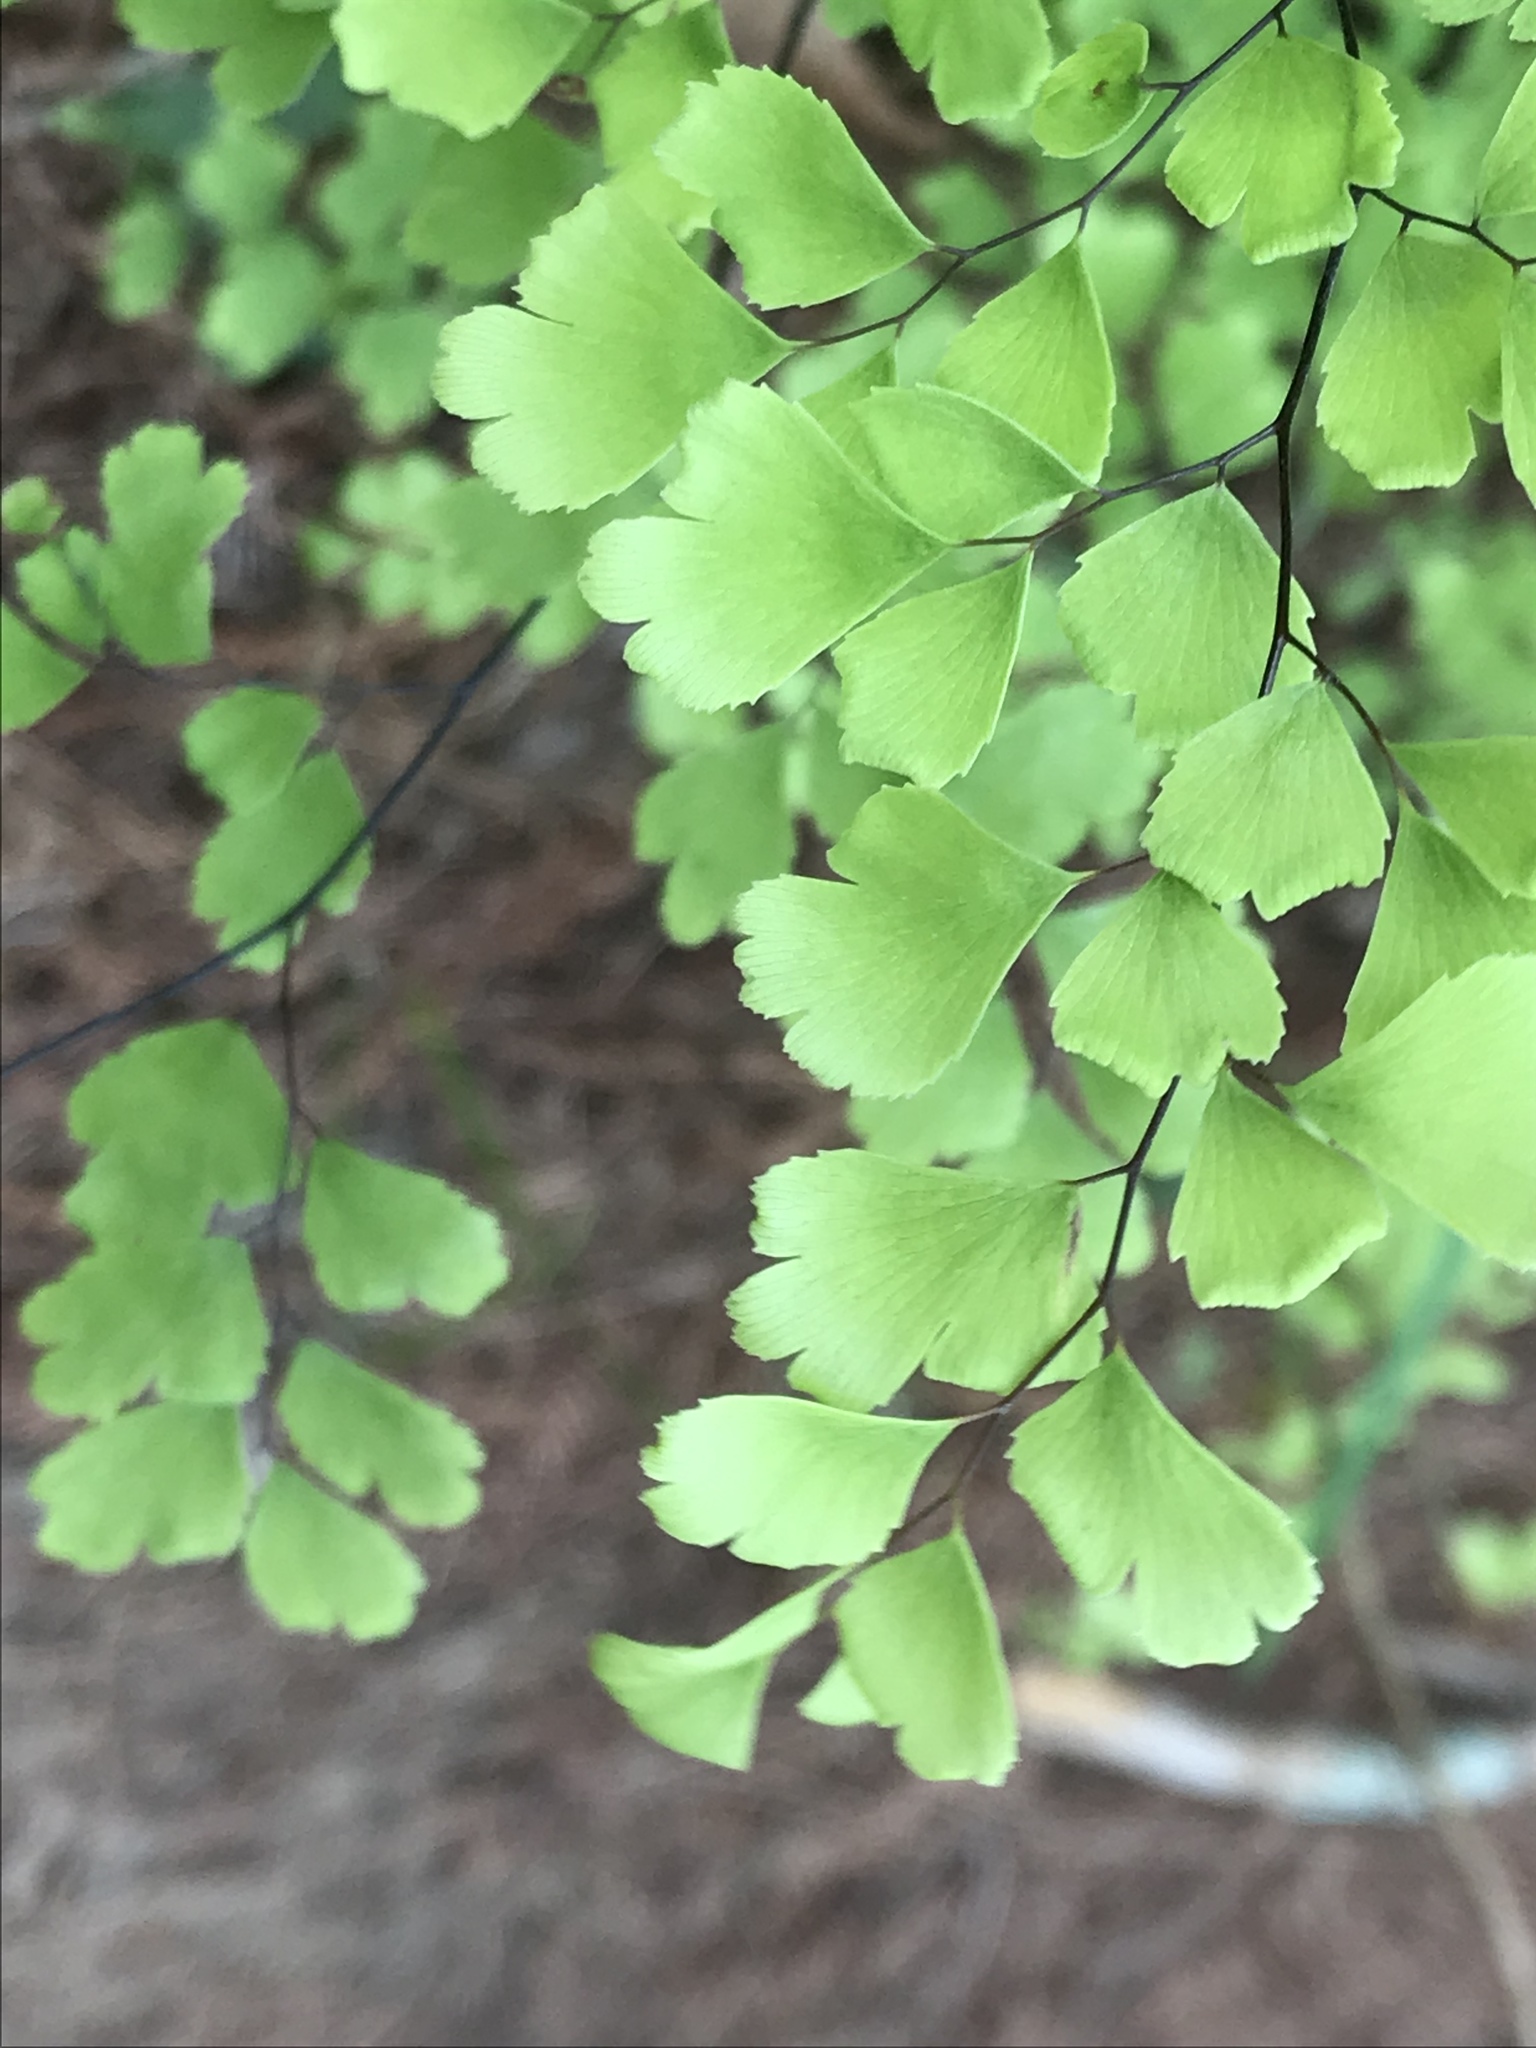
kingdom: Plantae
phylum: Tracheophyta
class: Polypodiopsida
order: Polypodiales
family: Pteridaceae
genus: Adiantum
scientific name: Adiantum capillus-veneris
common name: Maidenhair fern
